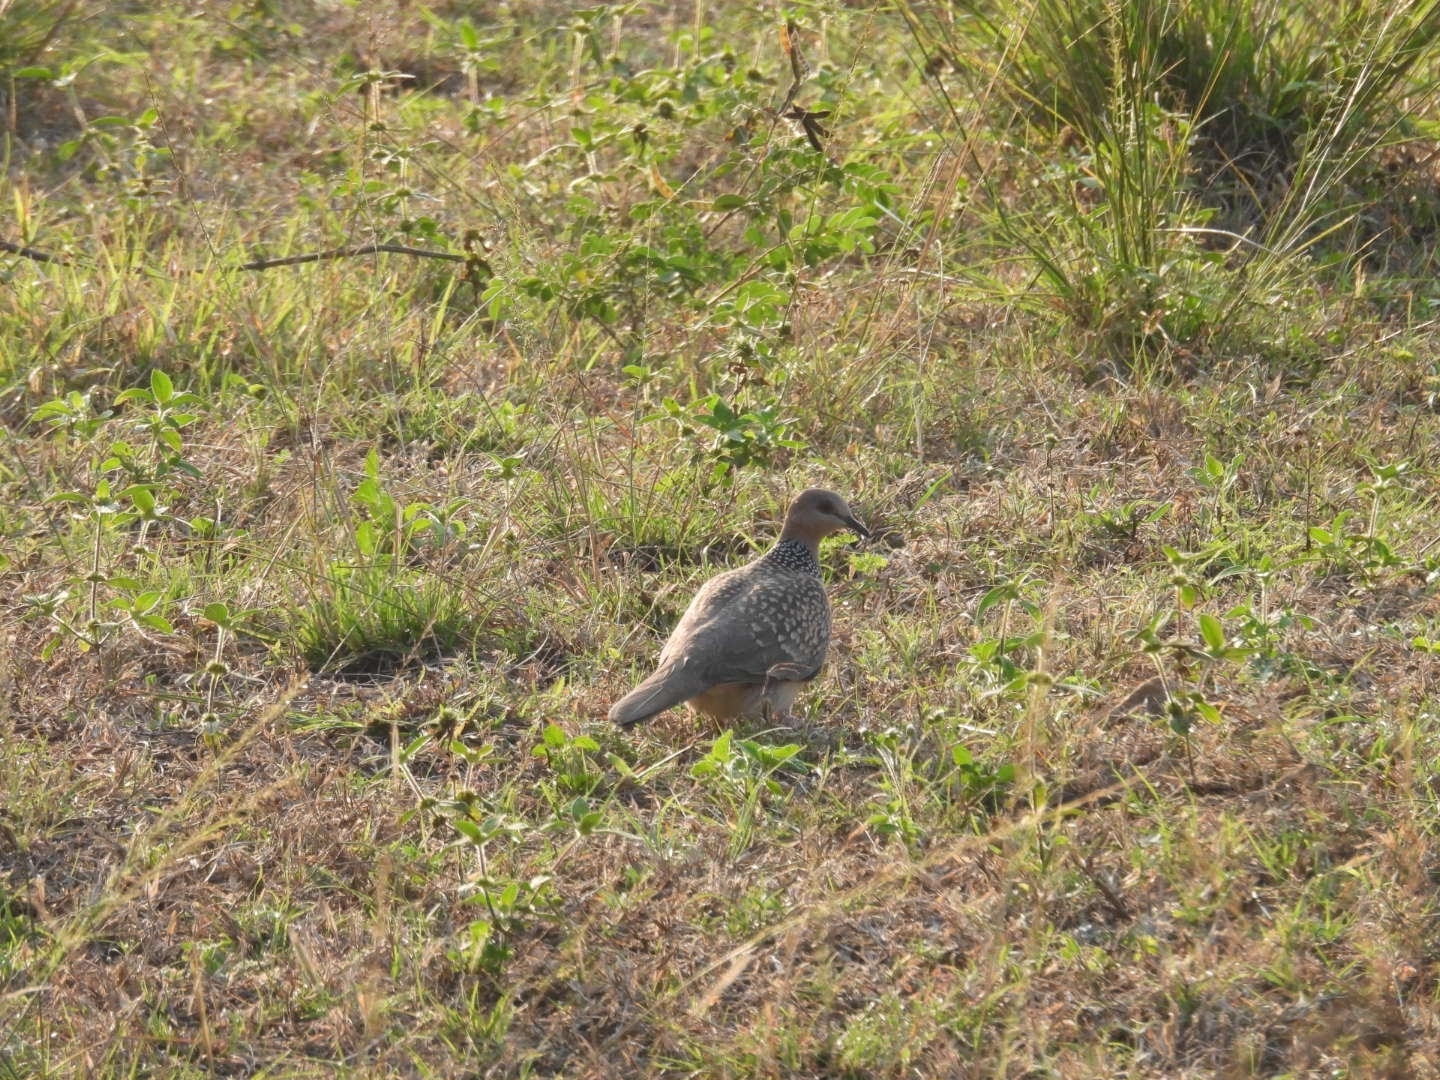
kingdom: Animalia
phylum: Chordata
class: Aves
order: Columbiformes
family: Columbidae
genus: Spilopelia
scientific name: Spilopelia chinensis
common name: Spotted dove
